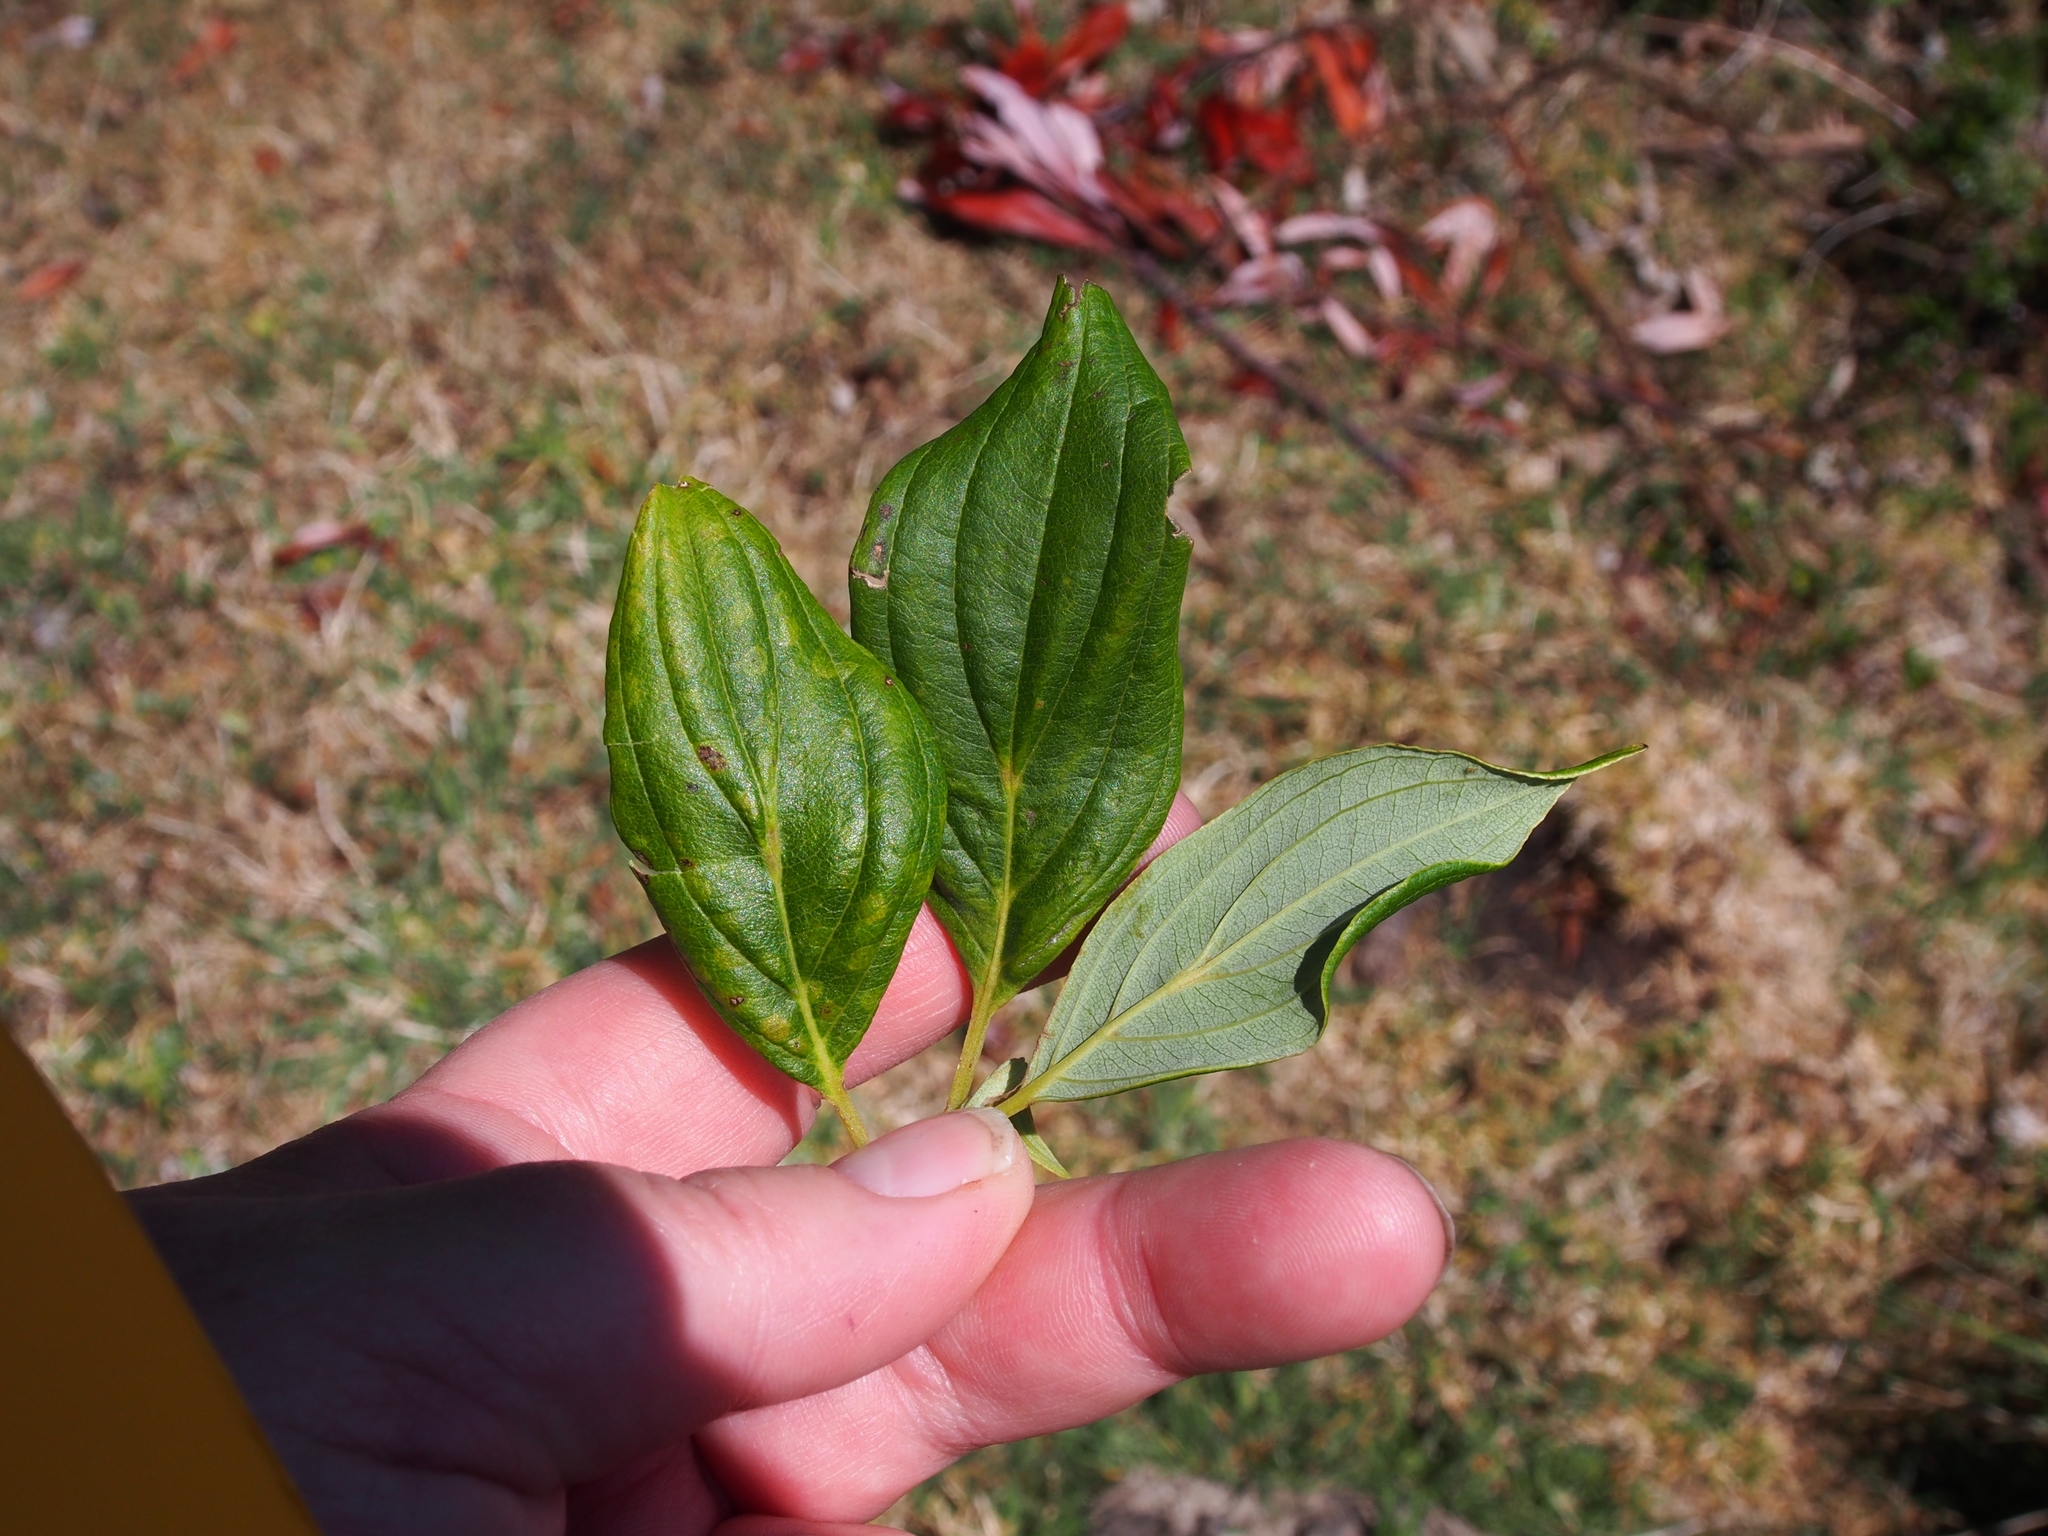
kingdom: Plantae
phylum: Tracheophyta
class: Magnoliopsida
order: Cornales
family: Cornaceae
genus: Cornus
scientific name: Cornus disciflora
